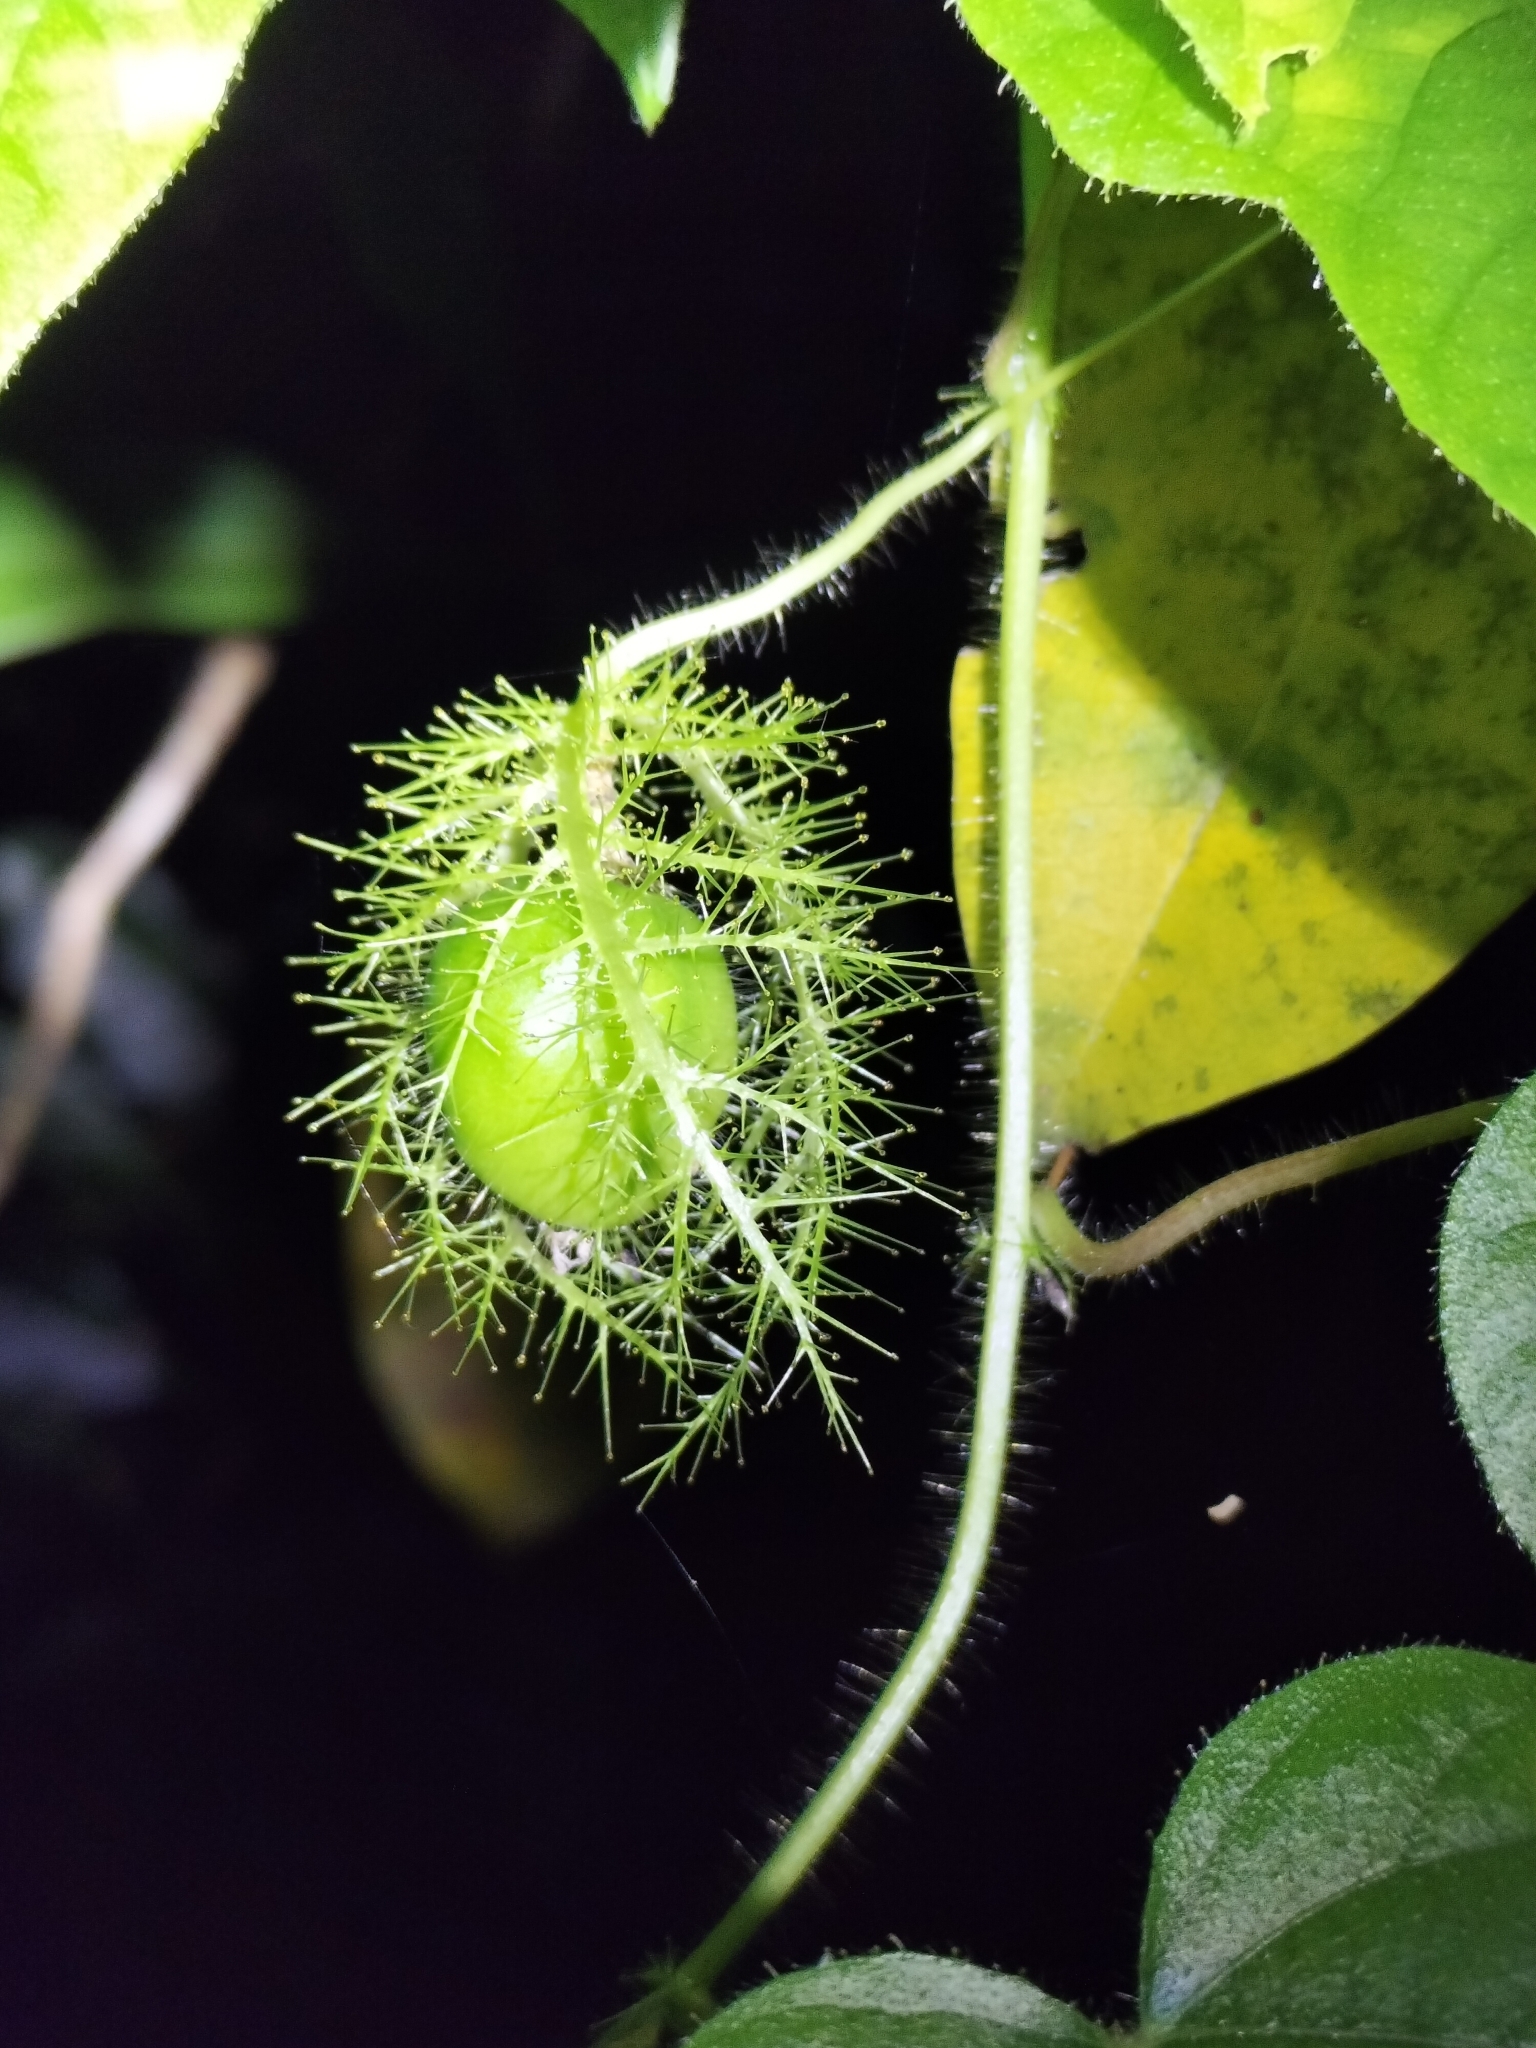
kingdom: Plantae
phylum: Tracheophyta
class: Magnoliopsida
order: Malpighiales
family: Passifloraceae
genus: Passiflora
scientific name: Passiflora foetida
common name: Fetid passionflower
